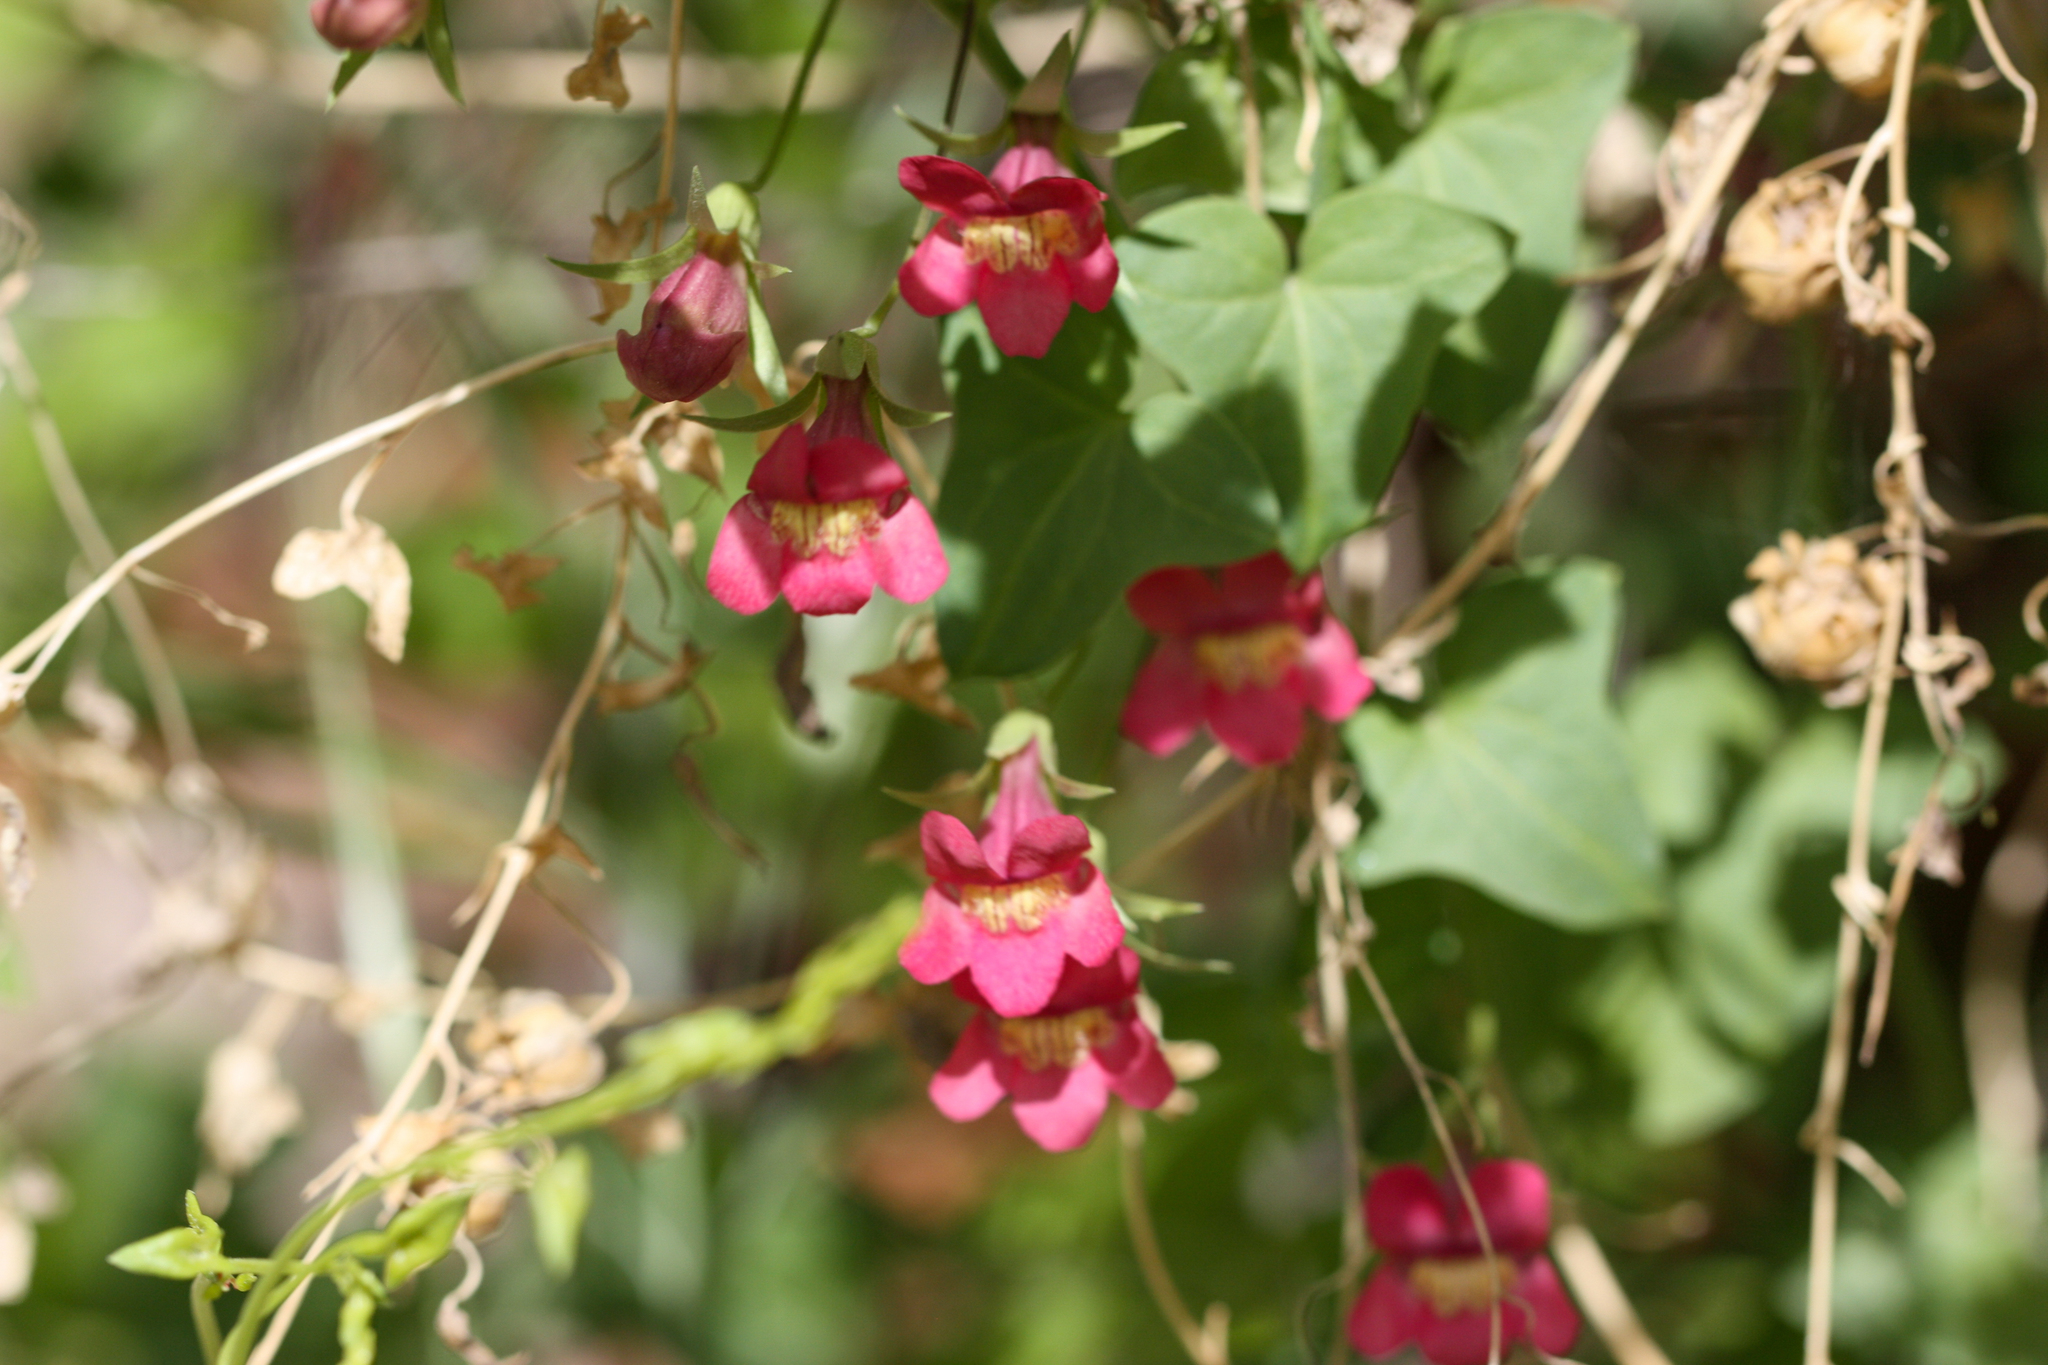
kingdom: Plantae
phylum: Tracheophyta
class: Magnoliopsida
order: Lamiales
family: Plantaginaceae
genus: Maurandella
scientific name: Maurandella antirrhiniflora
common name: Violet twining-snapdragon
